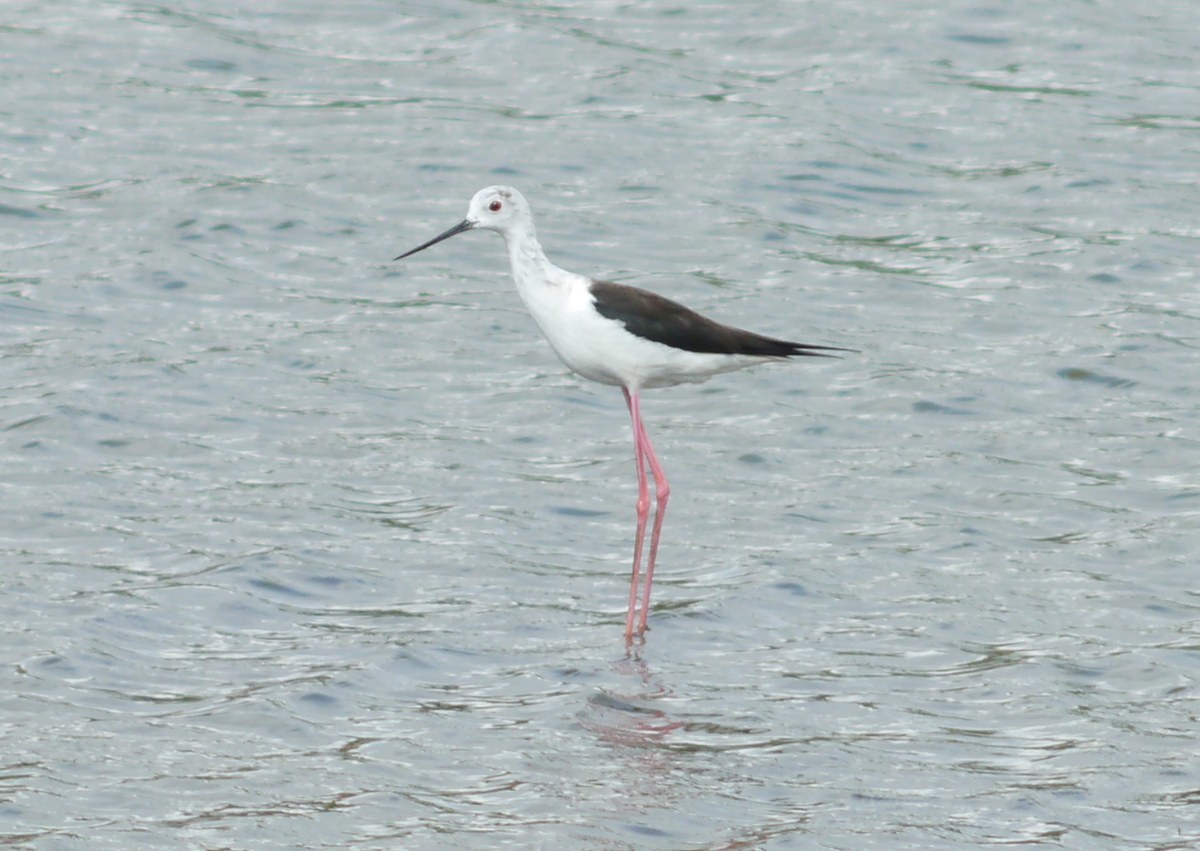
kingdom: Animalia
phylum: Chordata
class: Aves
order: Charadriiformes
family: Recurvirostridae
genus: Himantopus
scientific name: Himantopus himantopus
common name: Black-winged stilt
